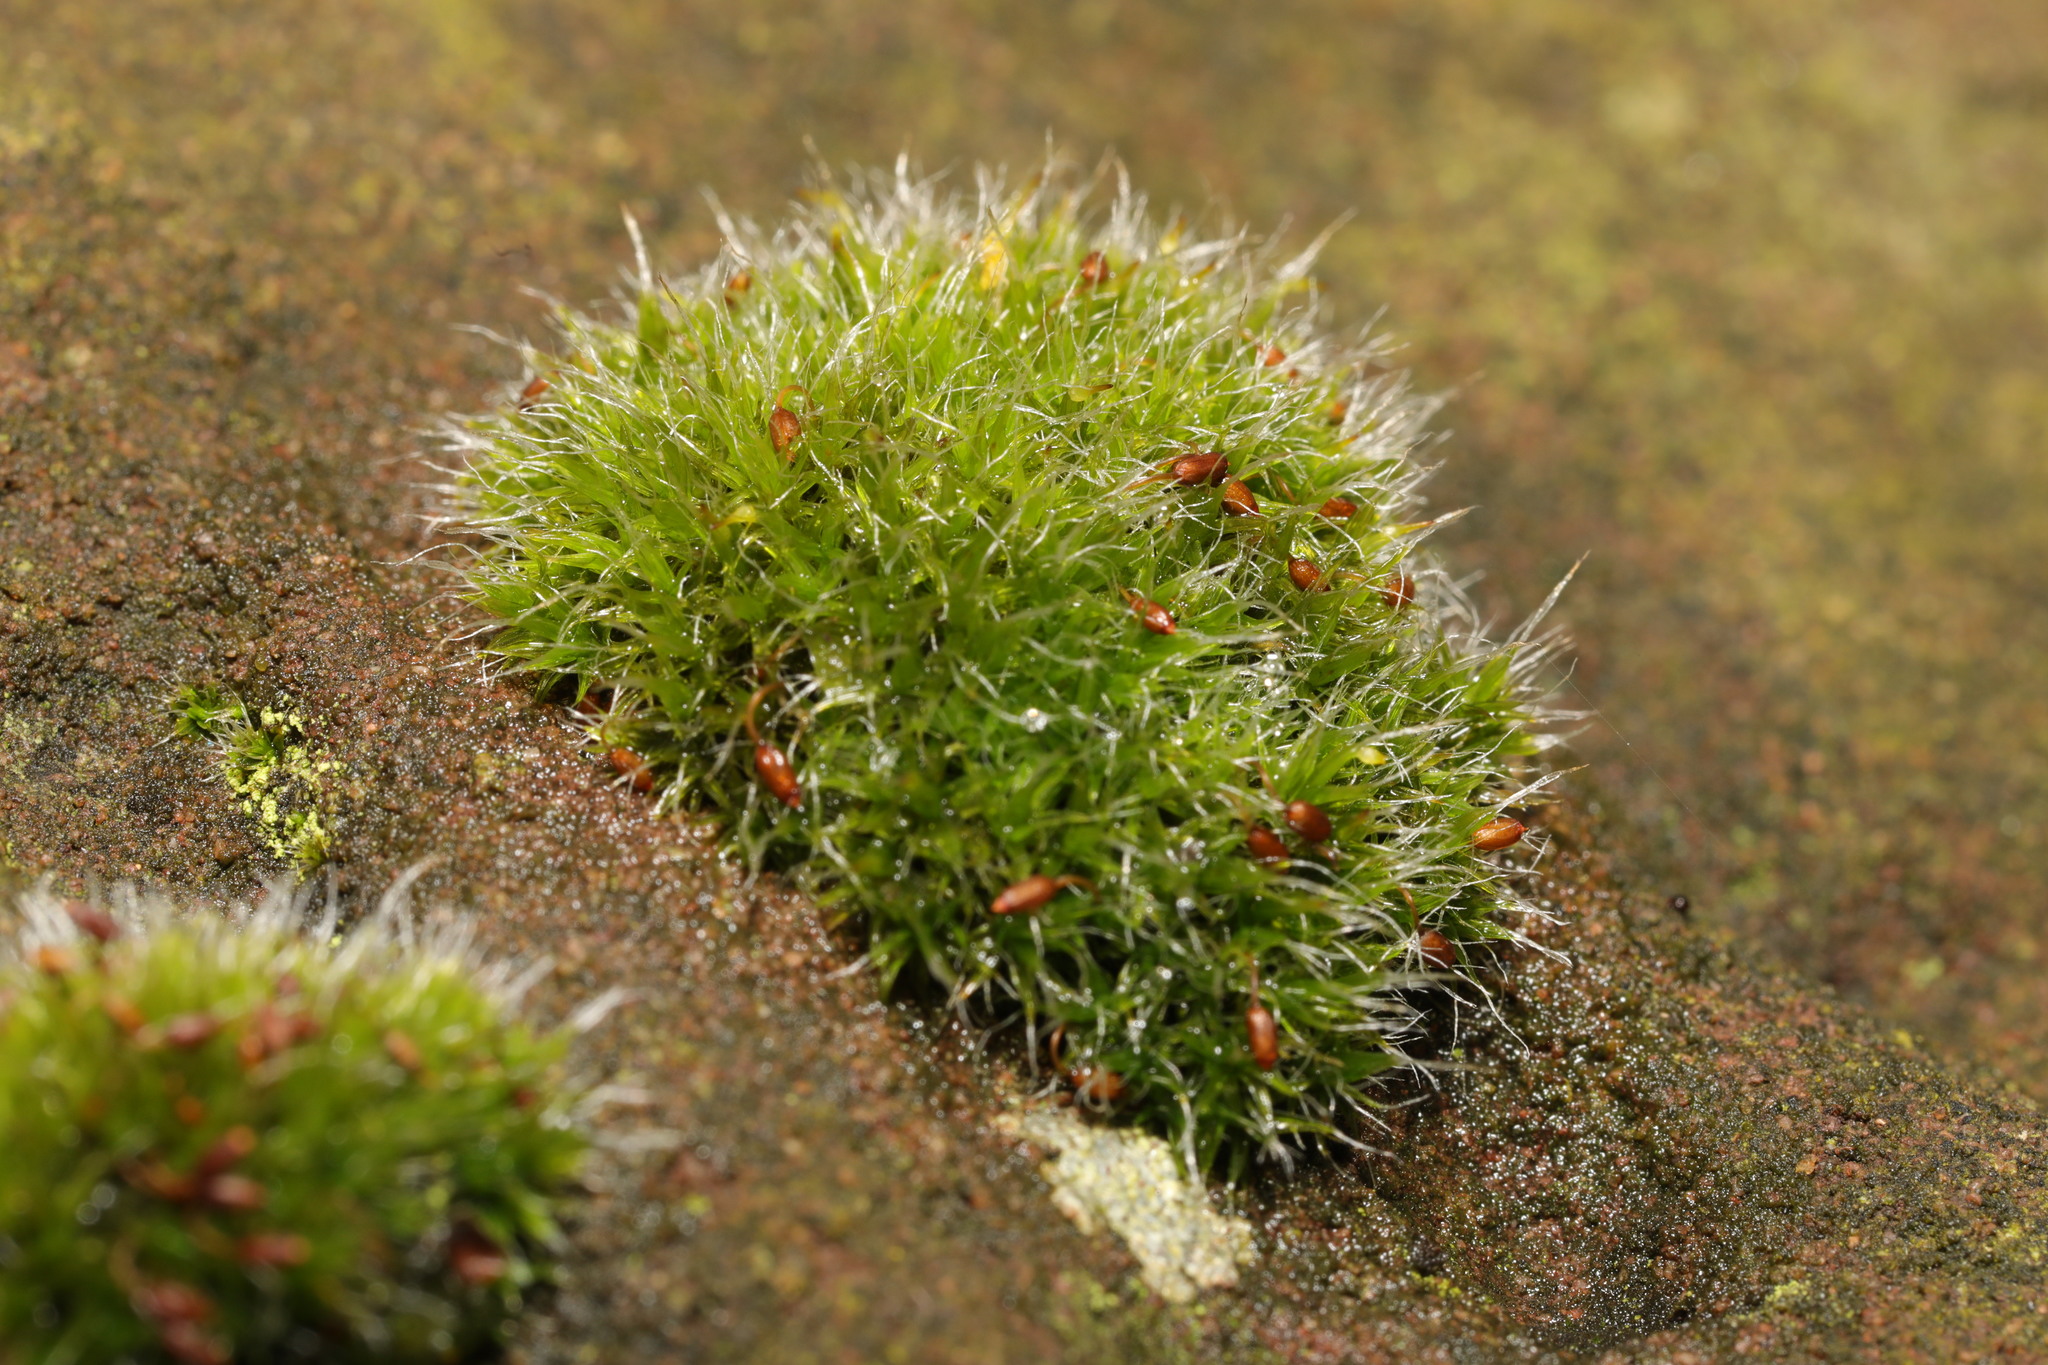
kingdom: Plantae
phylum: Bryophyta
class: Bryopsida
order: Grimmiales
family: Grimmiaceae
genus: Grimmia
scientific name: Grimmia pulvinata
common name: Grey-cushioned grimmia
